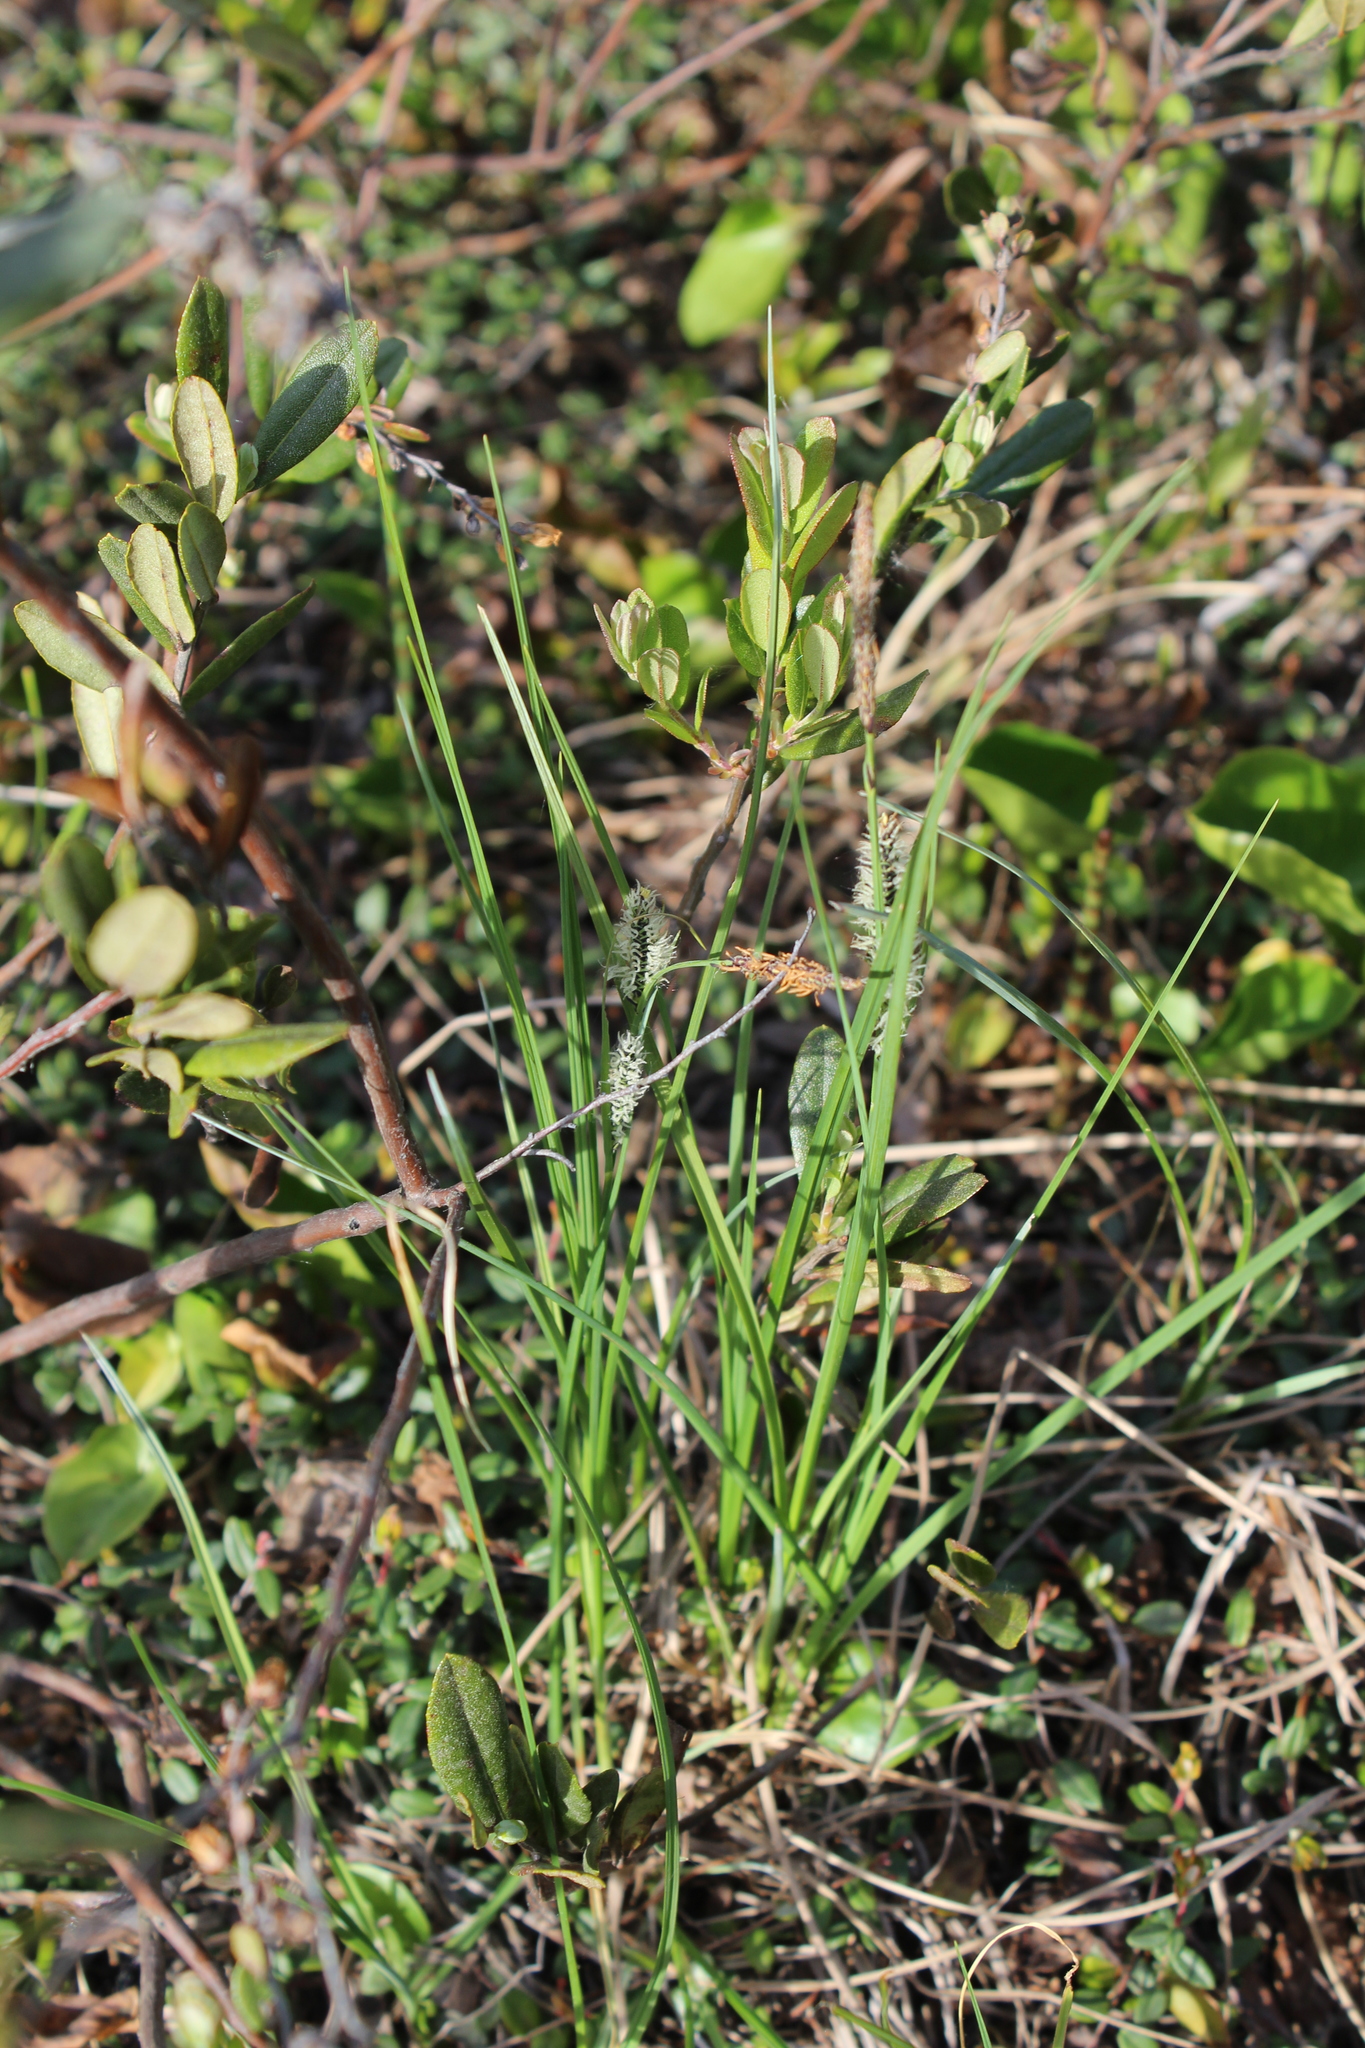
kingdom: Plantae
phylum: Tracheophyta
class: Liliopsida
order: Poales
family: Cyperaceae
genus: Carex
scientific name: Carex nigra
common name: Common sedge
